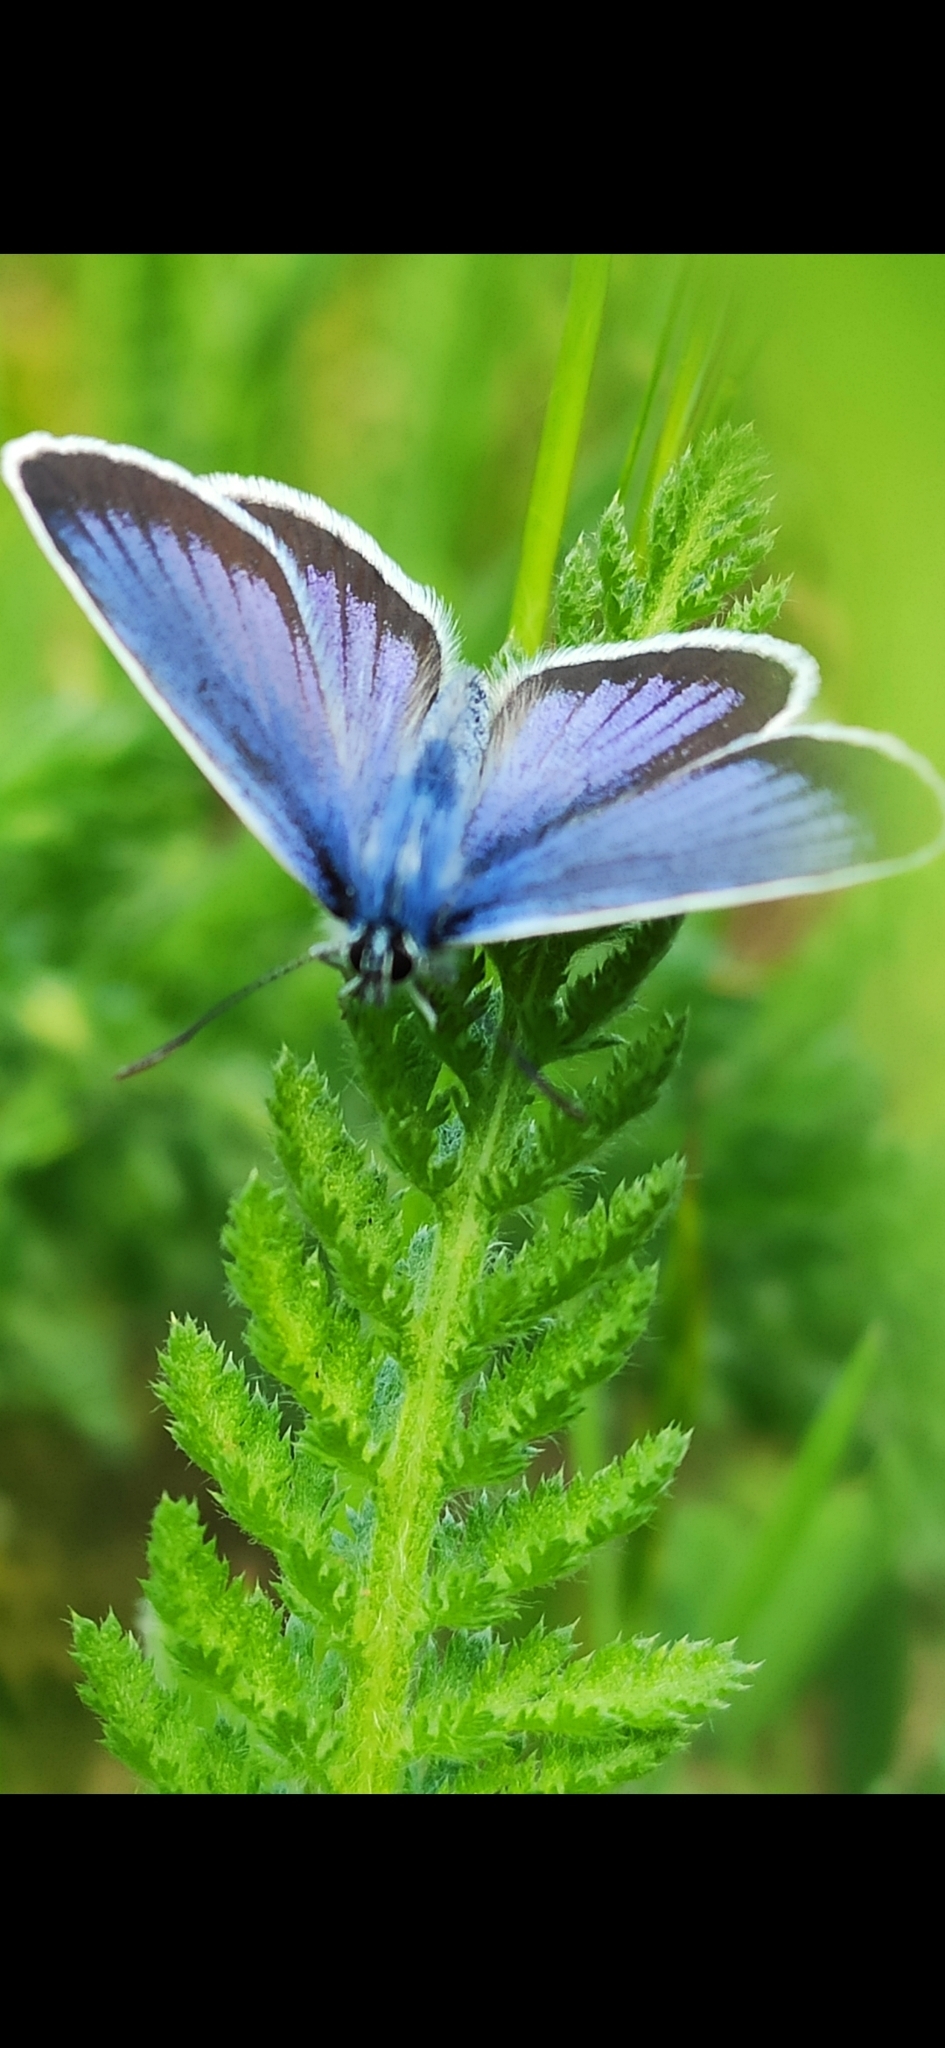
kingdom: Animalia
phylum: Arthropoda
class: Insecta
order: Lepidoptera
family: Lycaenidae
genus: Plebejus
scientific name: Plebejus argus
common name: Silver-studded blue
